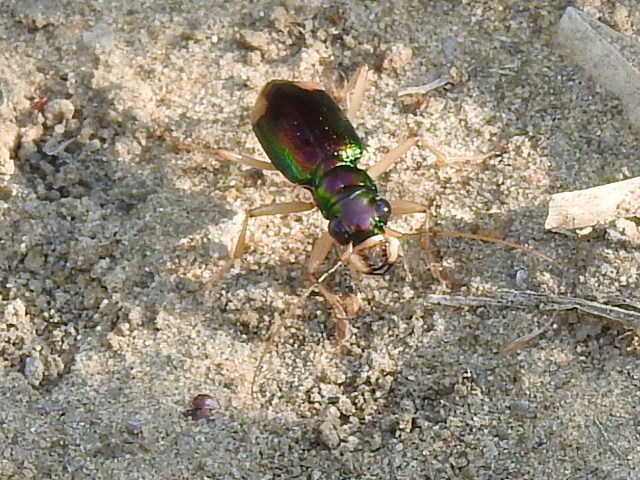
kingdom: Animalia
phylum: Arthropoda
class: Insecta
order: Coleoptera
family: Carabidae
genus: Tetracha
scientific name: Tetracha carolina
